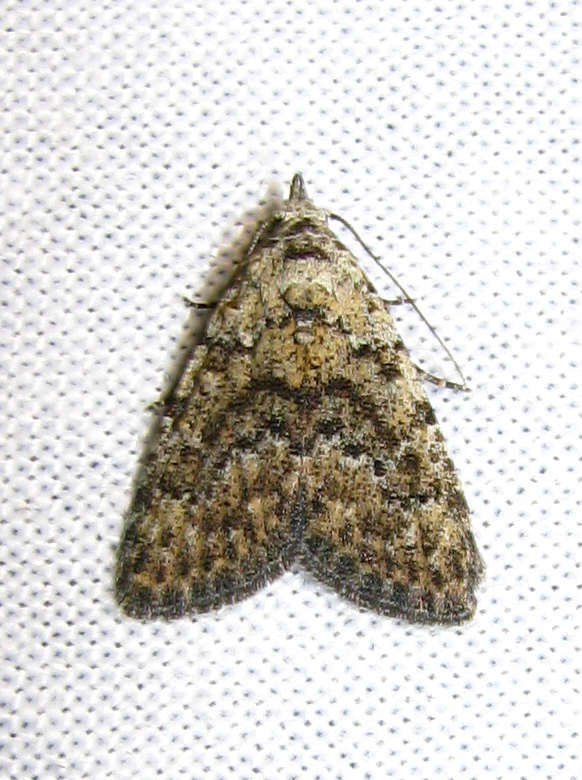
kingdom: Animalia
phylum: Arthropoda
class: Insecta
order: Lepidoptera
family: Nolidae
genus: Nola
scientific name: Nola pothina
